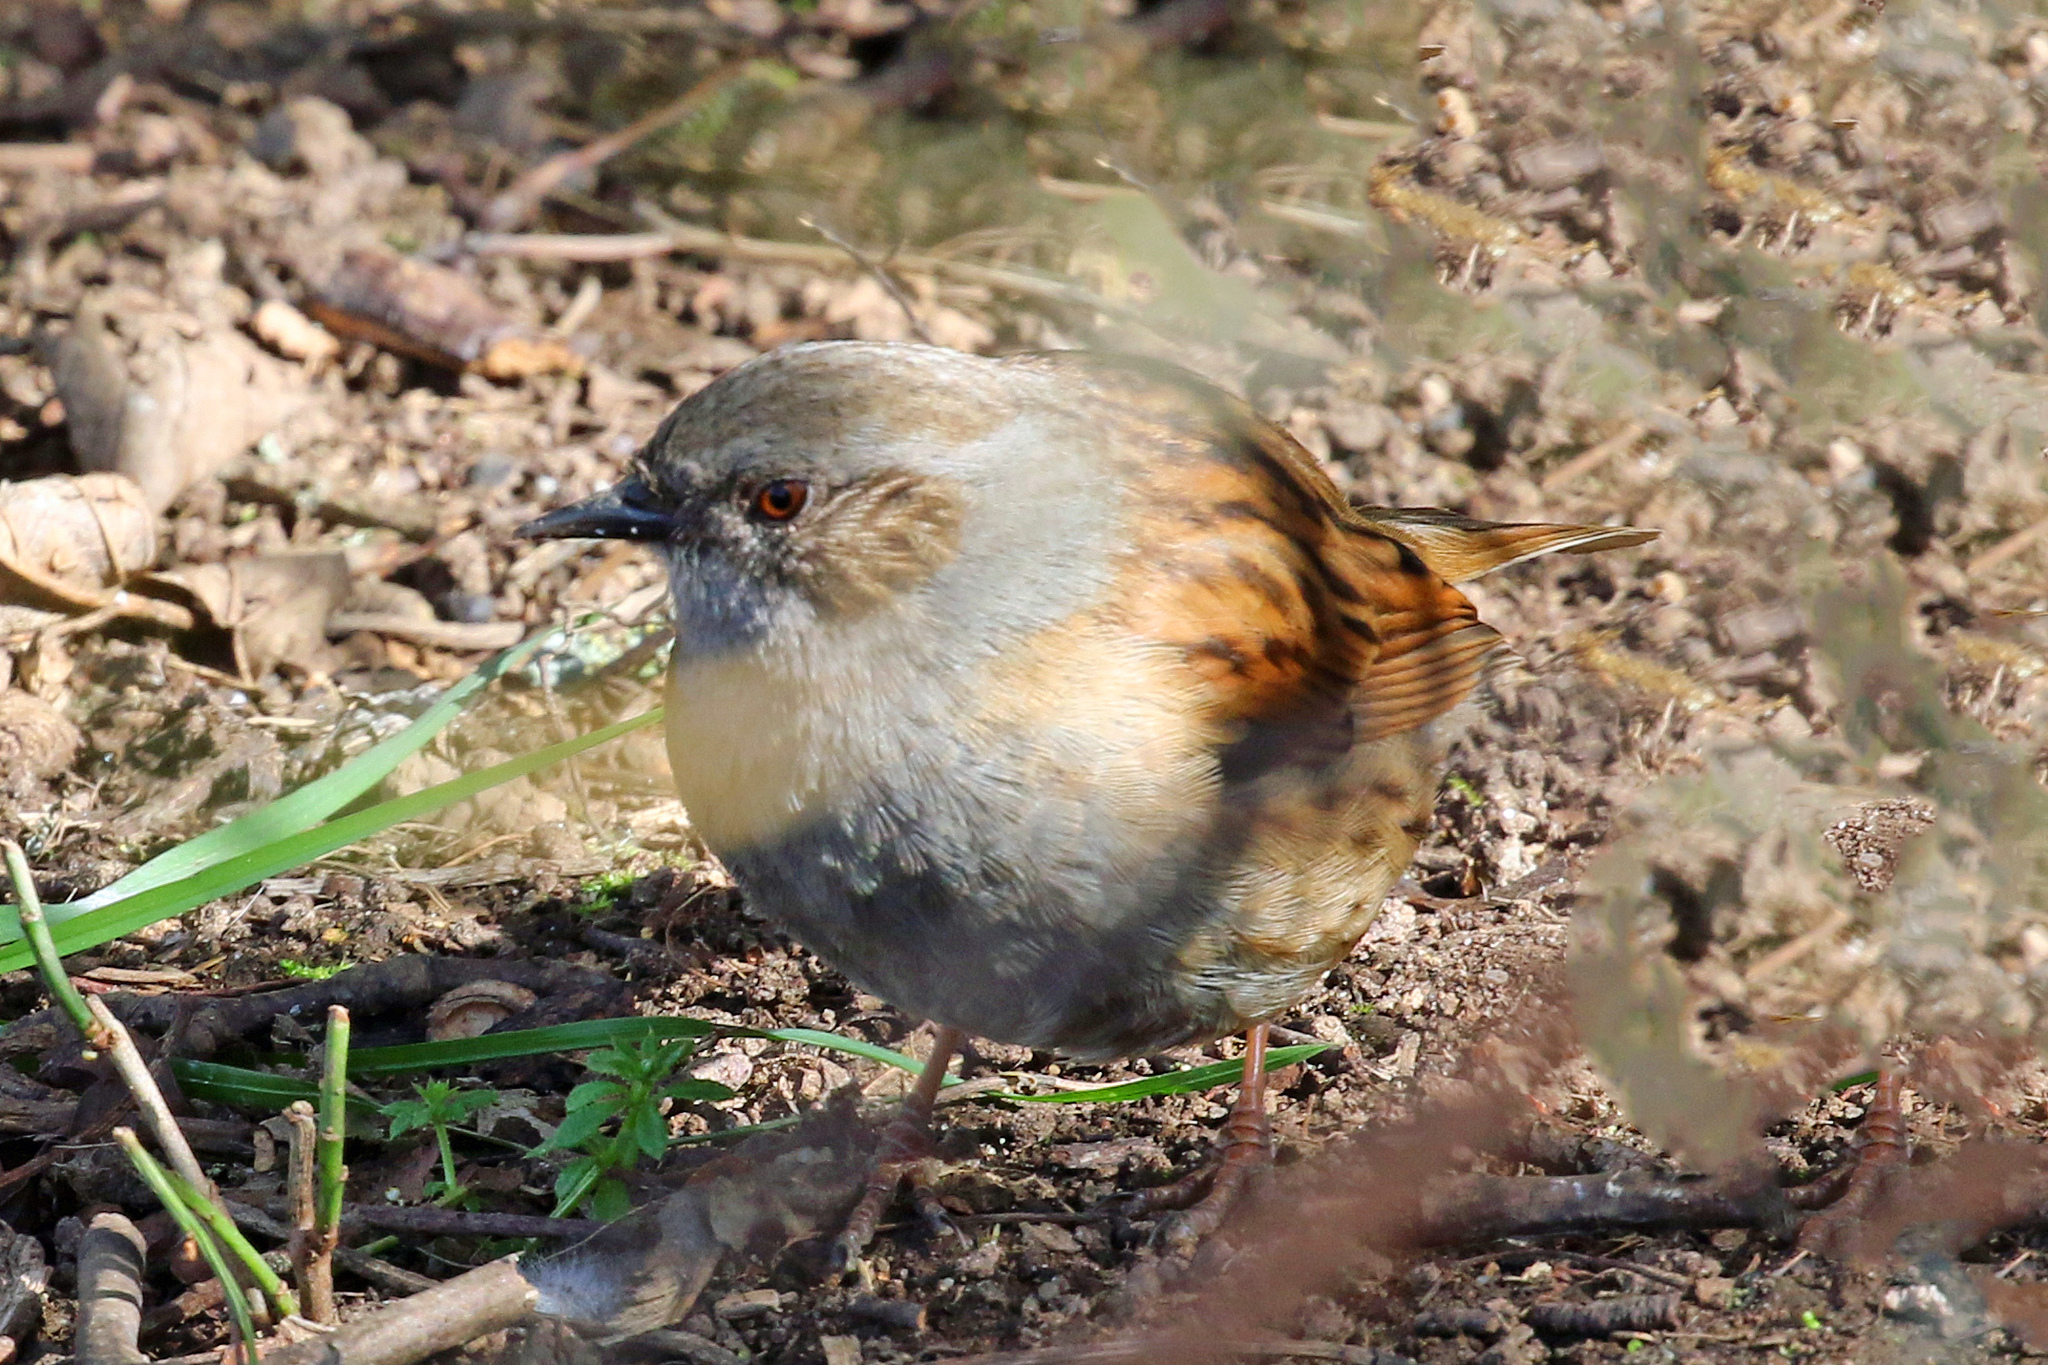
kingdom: Animalia
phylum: Chordata
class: Aves
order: Passeriformes
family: Prunellidae
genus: Prunella
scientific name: Prunella modularis
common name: Dunnock
